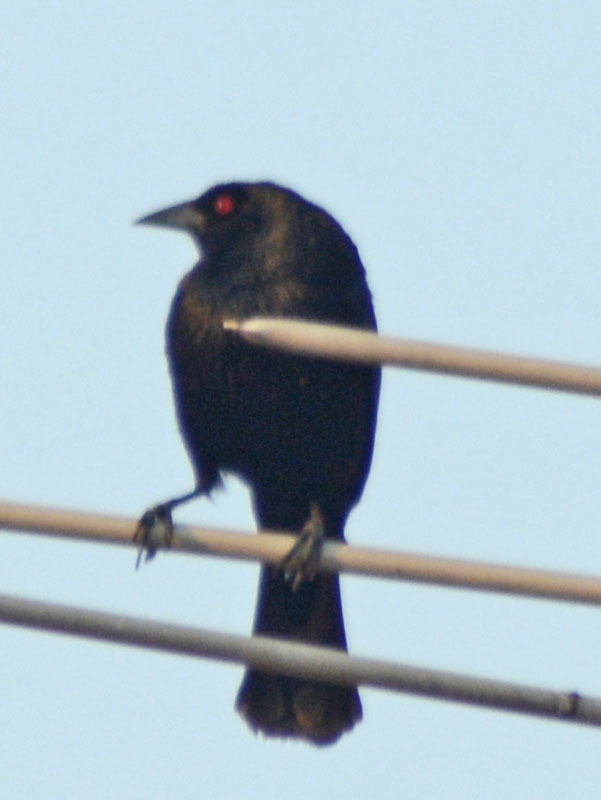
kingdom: Animalia
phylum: Chordata
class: Aves
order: Passeriformes
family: Icteridae
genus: Molothrus
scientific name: Molothrus aeneus
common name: Bronzed cowbird
